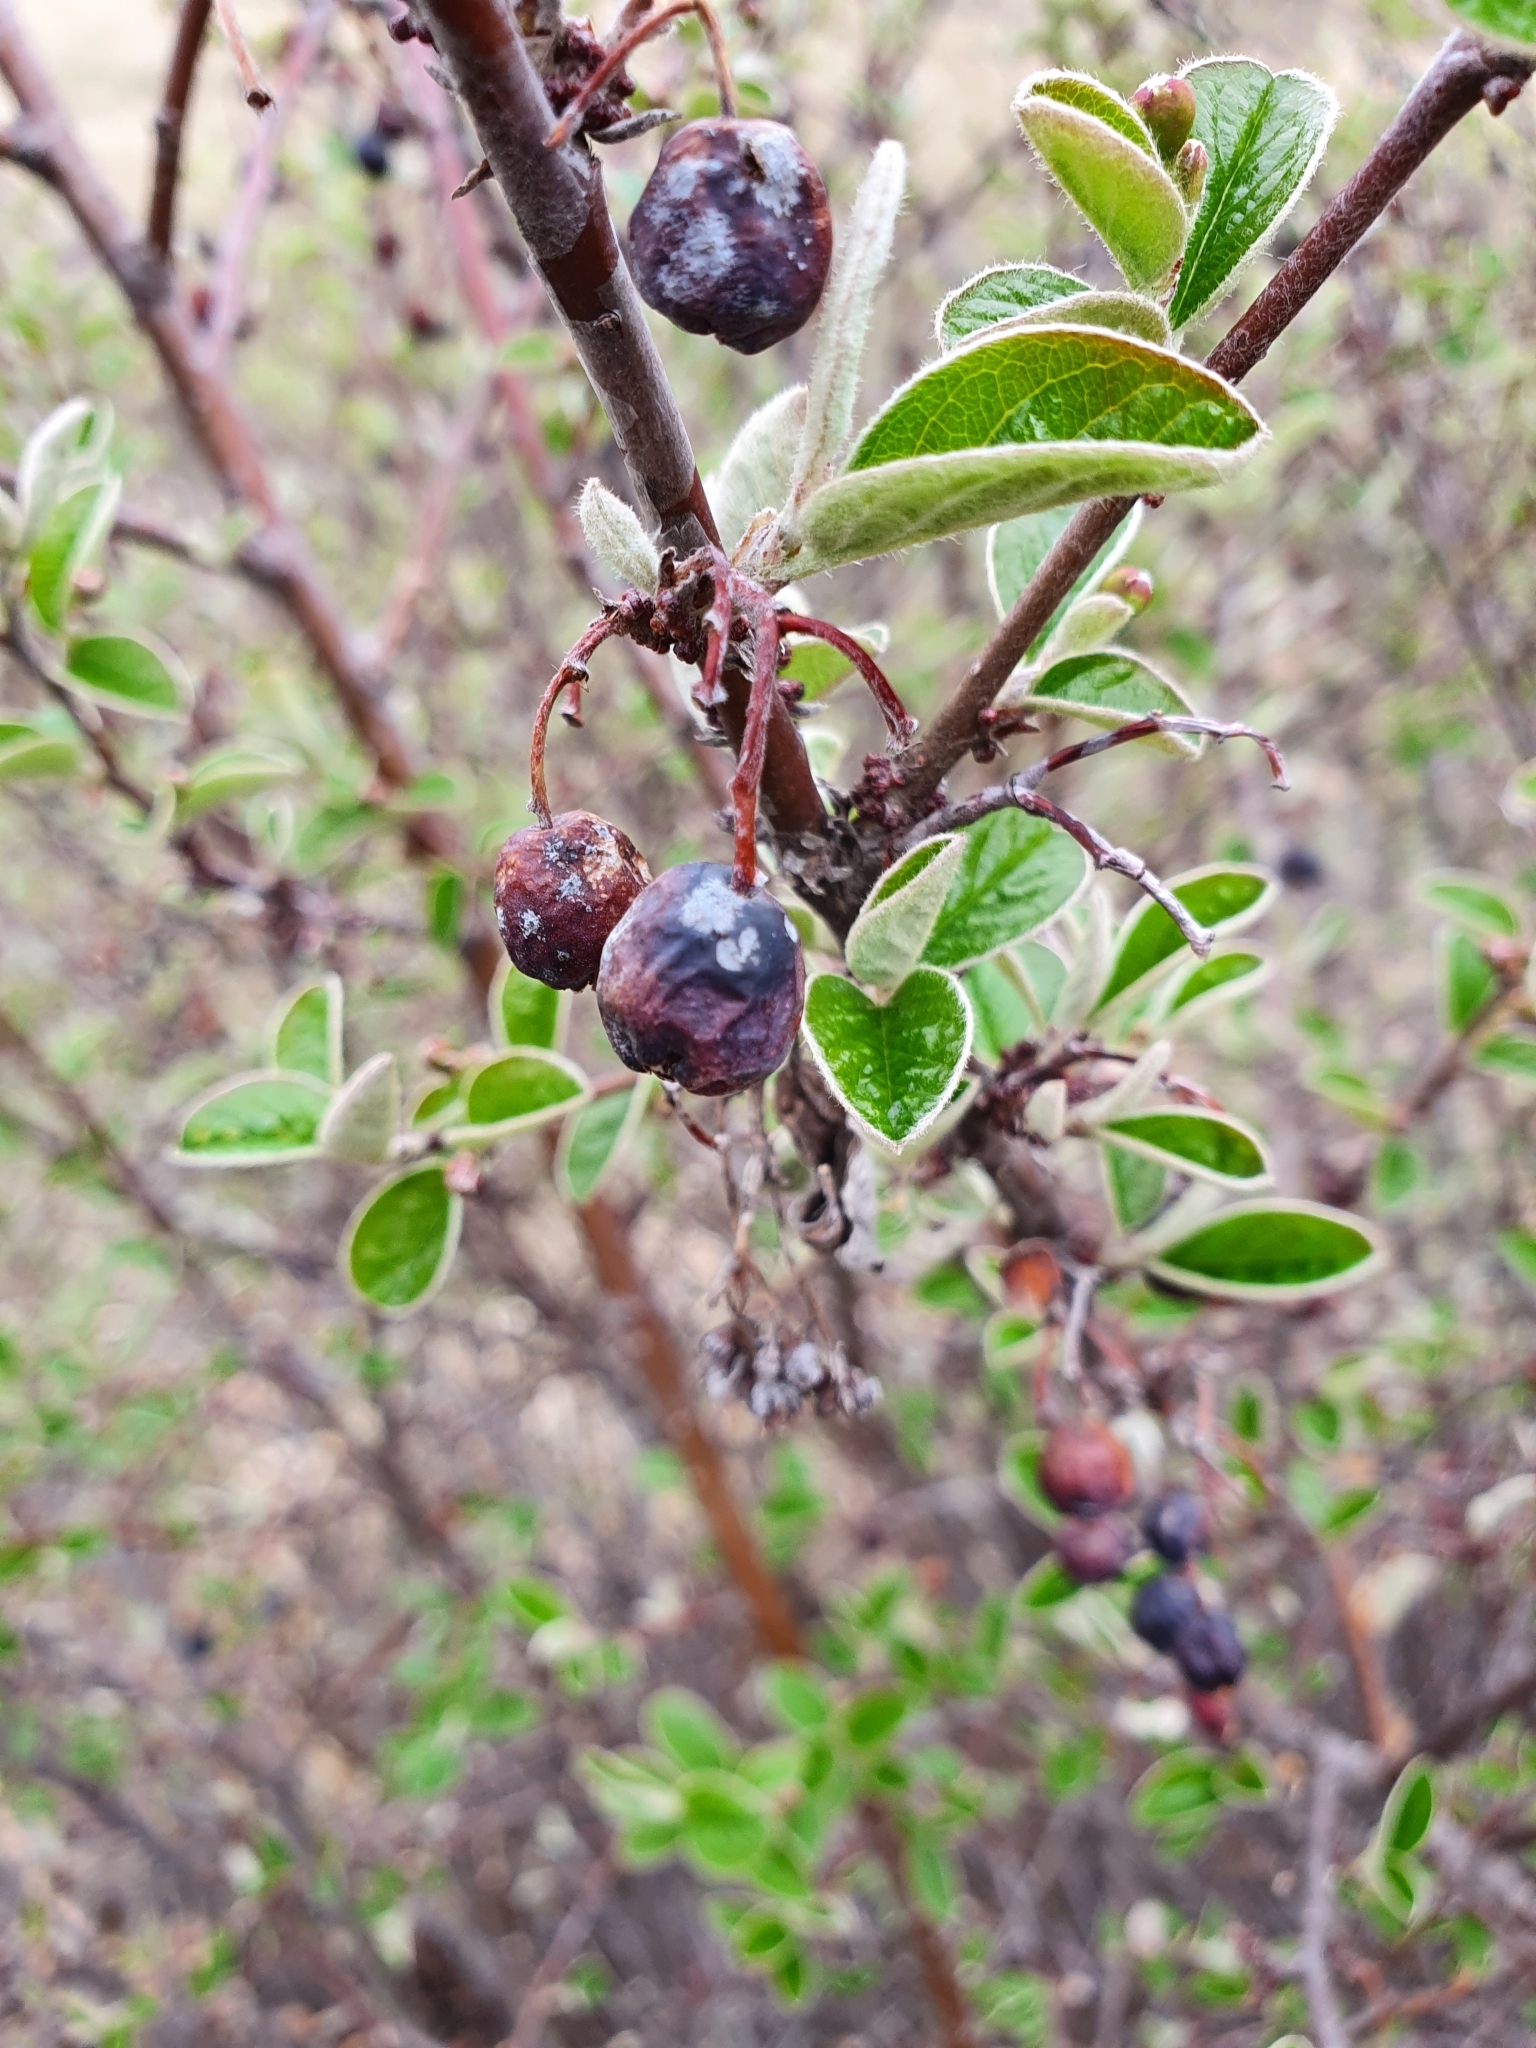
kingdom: Plantae
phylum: Tracheophyta
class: Magnoliopsida
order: Rosales
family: Rosaceae
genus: Cotoneaster
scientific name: Cotoneaster melanocarpus
